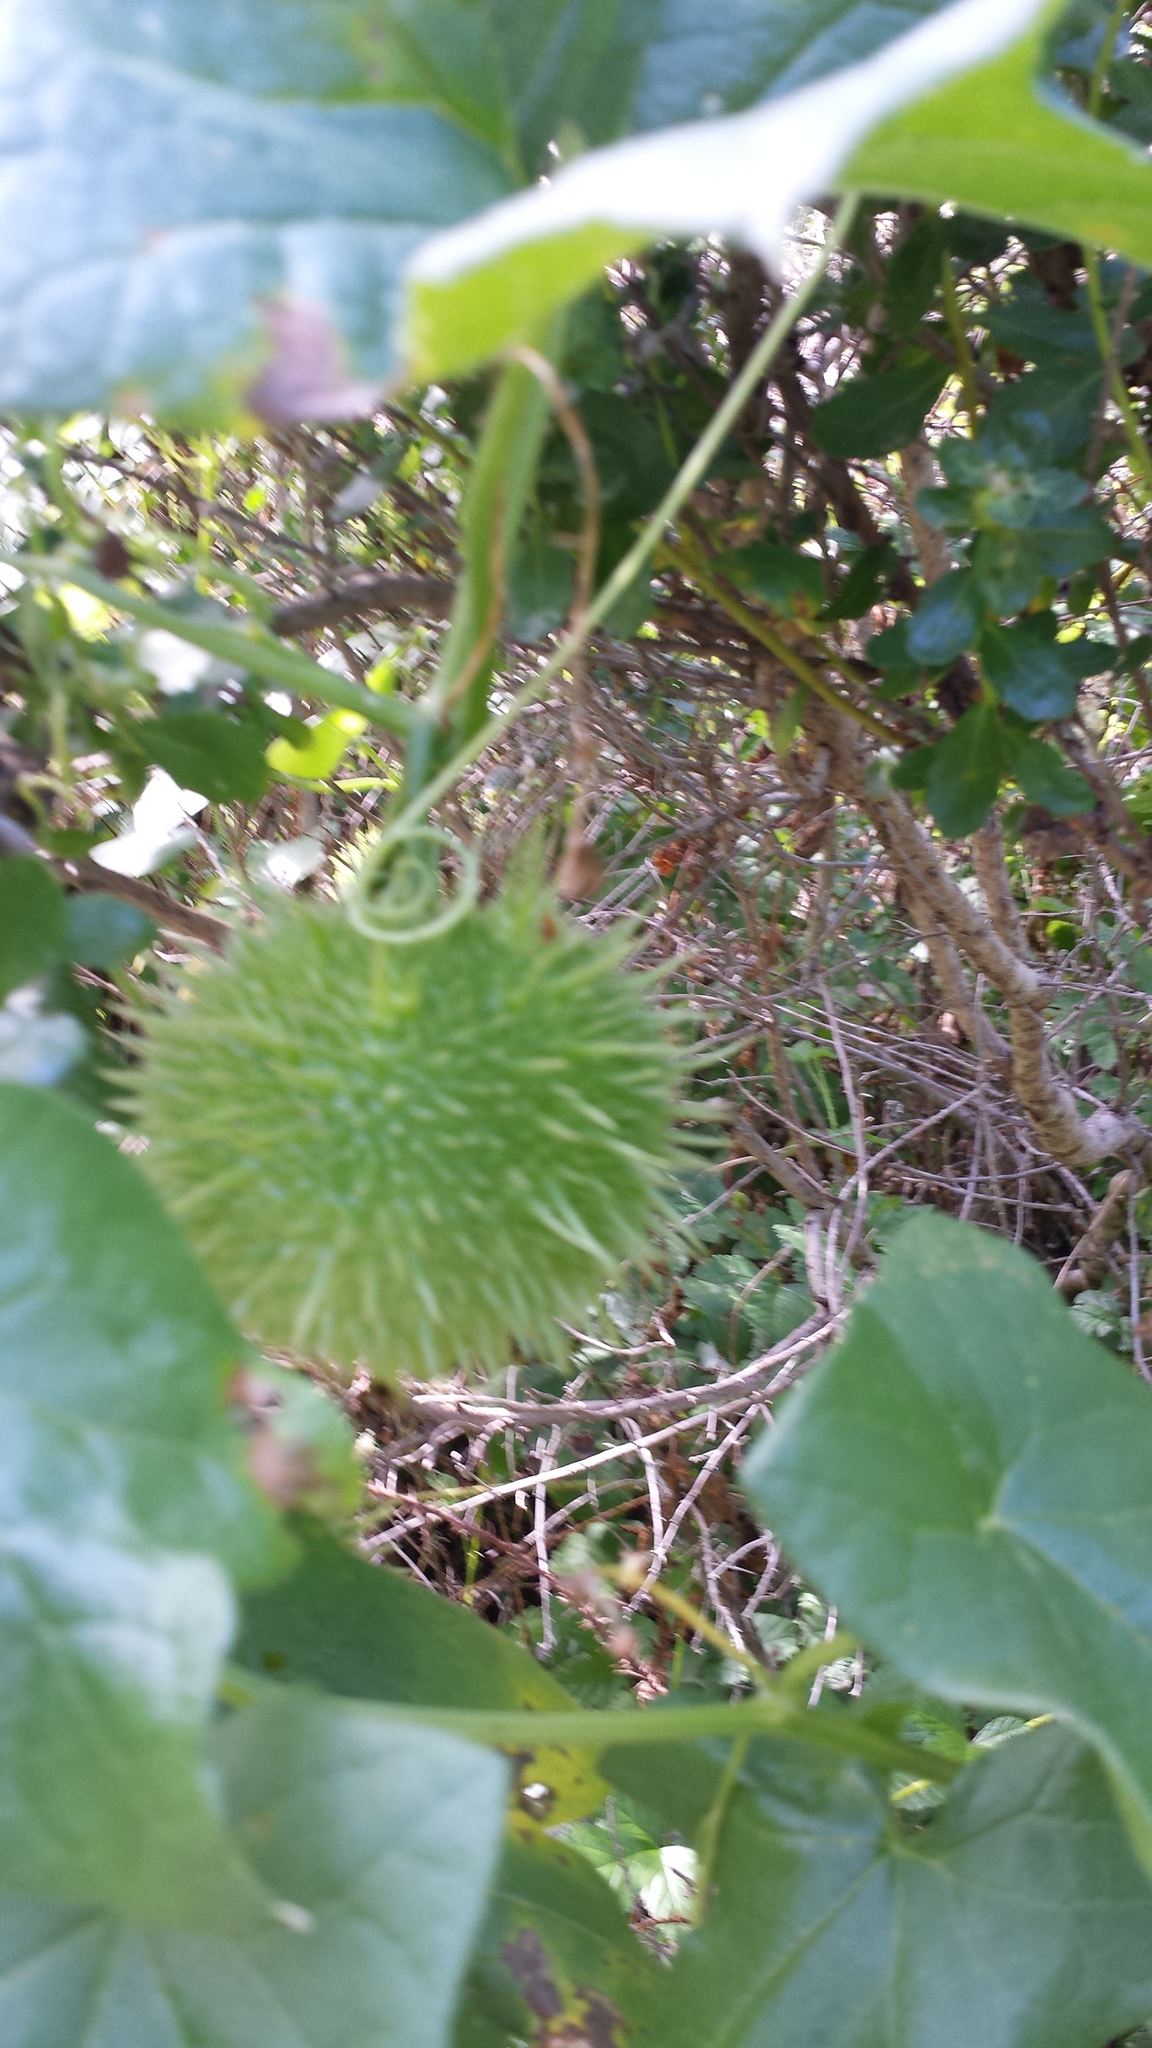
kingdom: Plantae
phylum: Tracheophyta
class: Magnoliopsida
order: Cucurbitales
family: Cucurbitaceae
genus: Marah
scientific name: Marah fabacea
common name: California manroot
